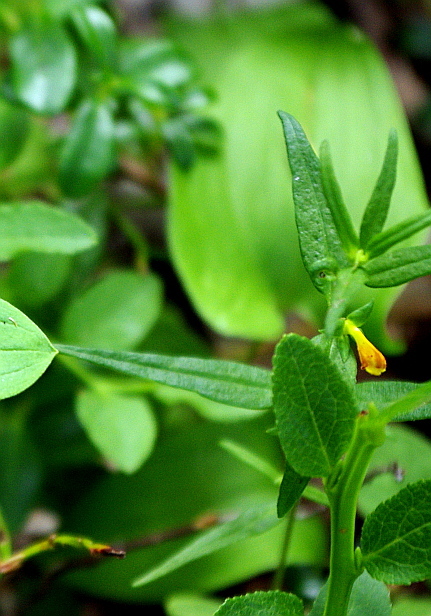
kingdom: Plantae
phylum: Tracheophyta
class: Magnoliopsida
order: Lamiales
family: Orobanchaceae
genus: Melampyrum
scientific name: Melampyrum sylvaticum
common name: Small cow-wheat
